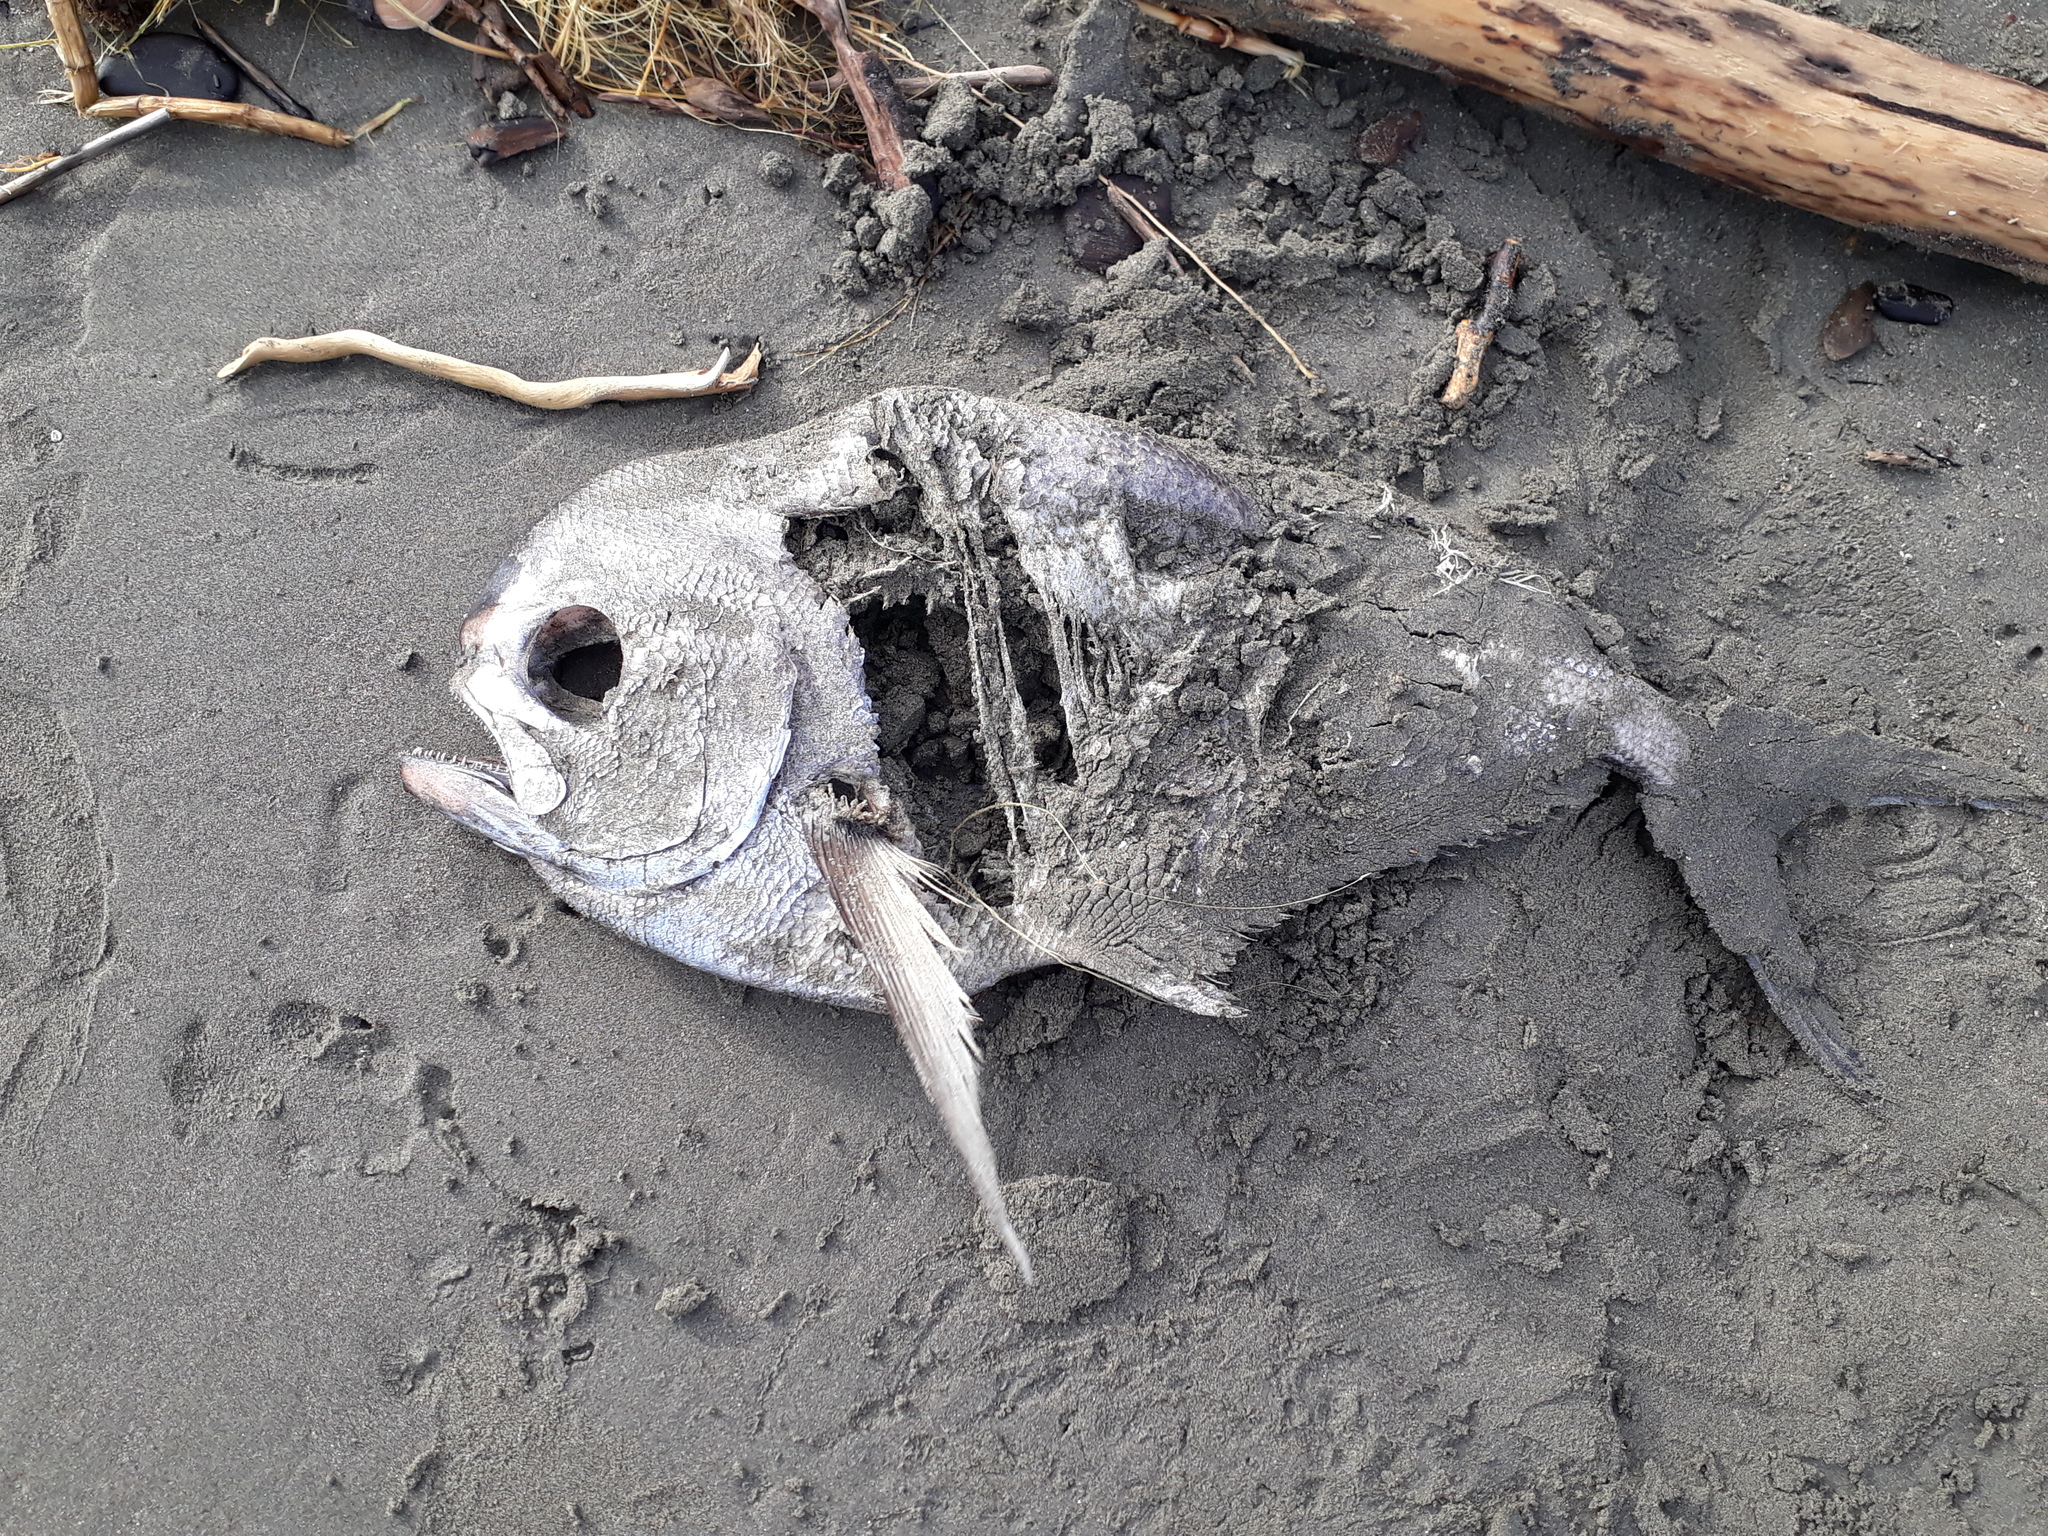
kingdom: Animalia
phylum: Chordata
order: Perciformes
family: Bramidae
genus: Brama
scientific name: Brama brama
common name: Ray's bream
